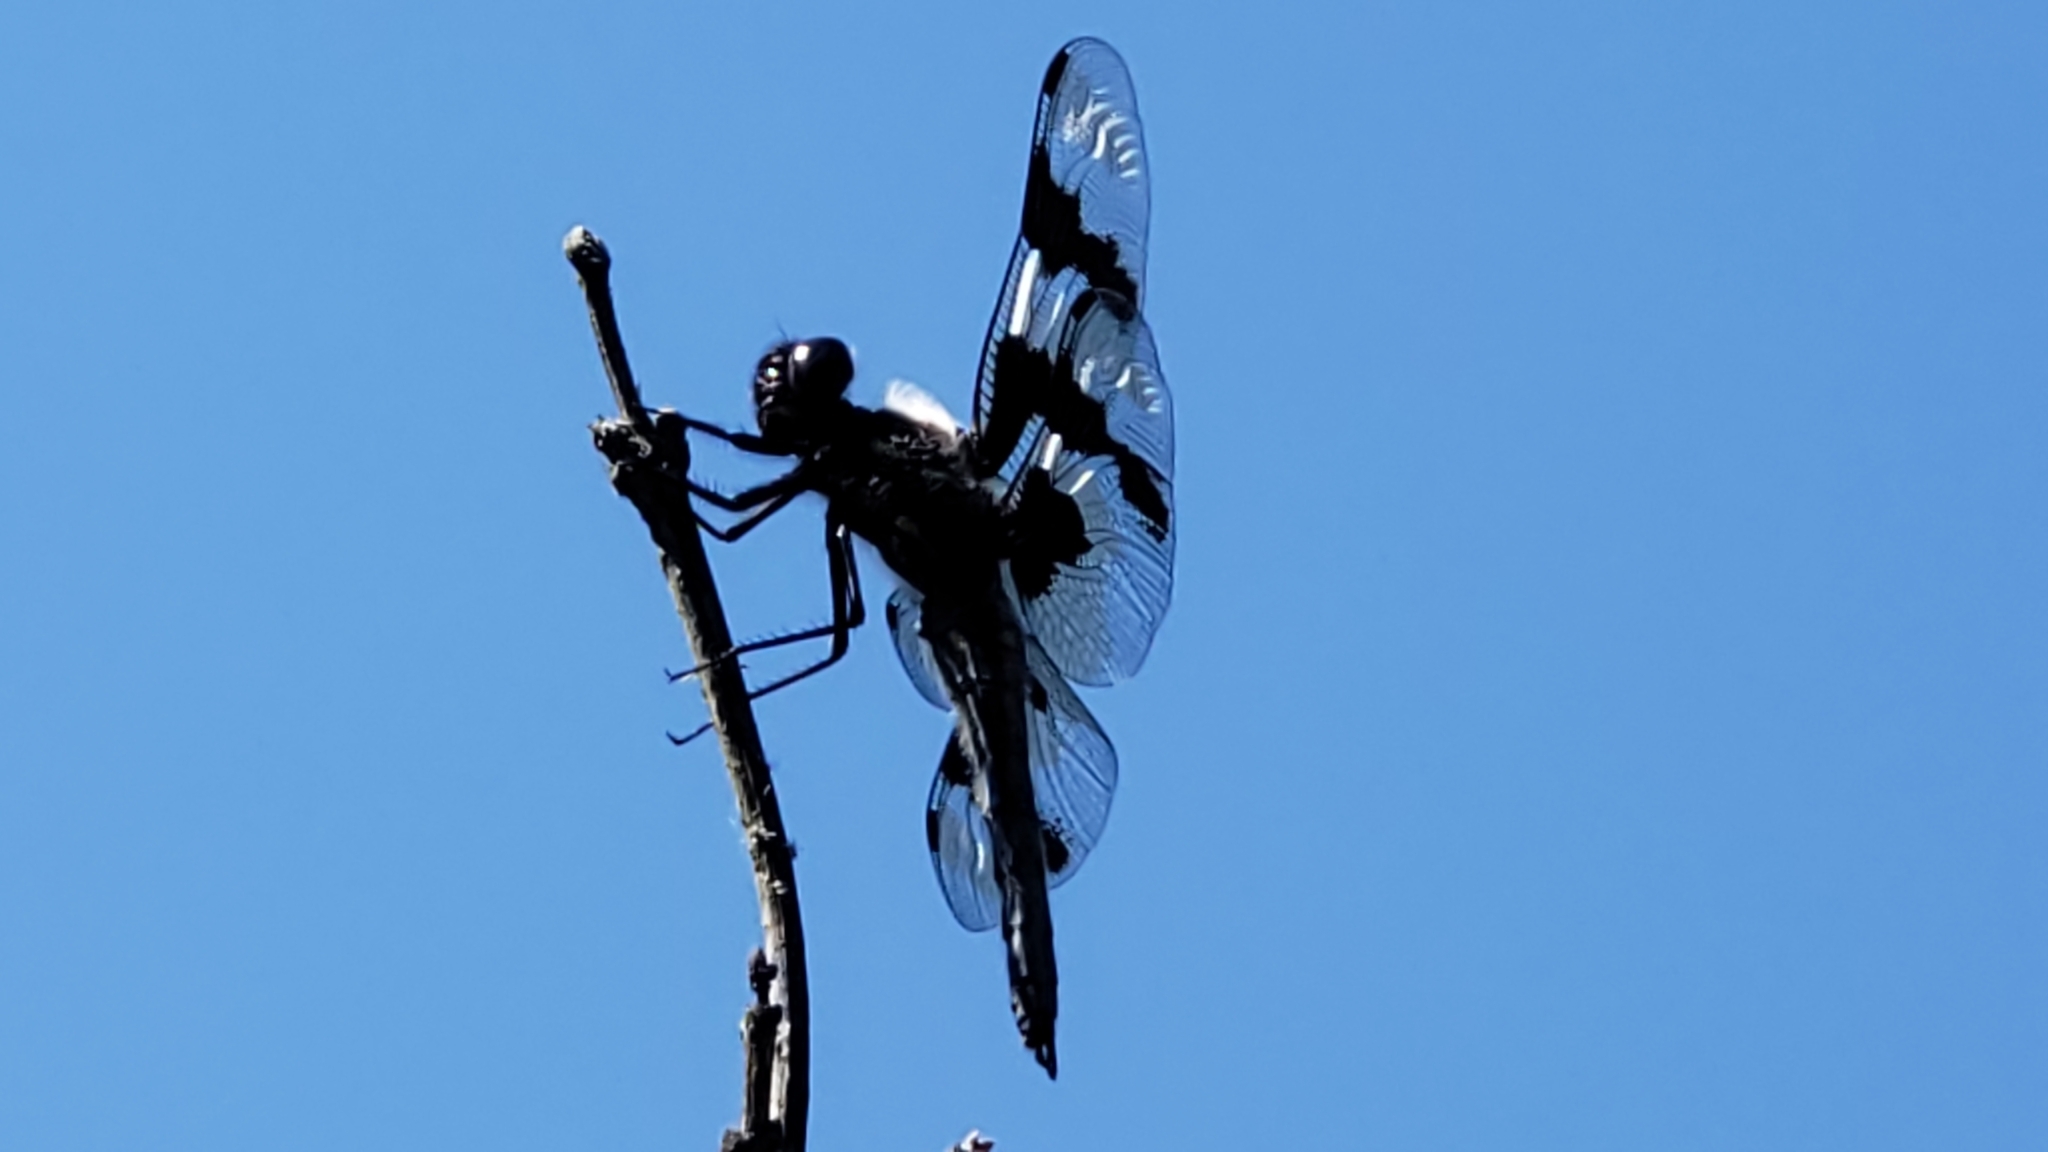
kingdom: Animalia
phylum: Arthropoda
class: Insecta
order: Odonata
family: Libellulidae
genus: Libellula
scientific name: Libellula forensis
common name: Eight-spotted skimmer
